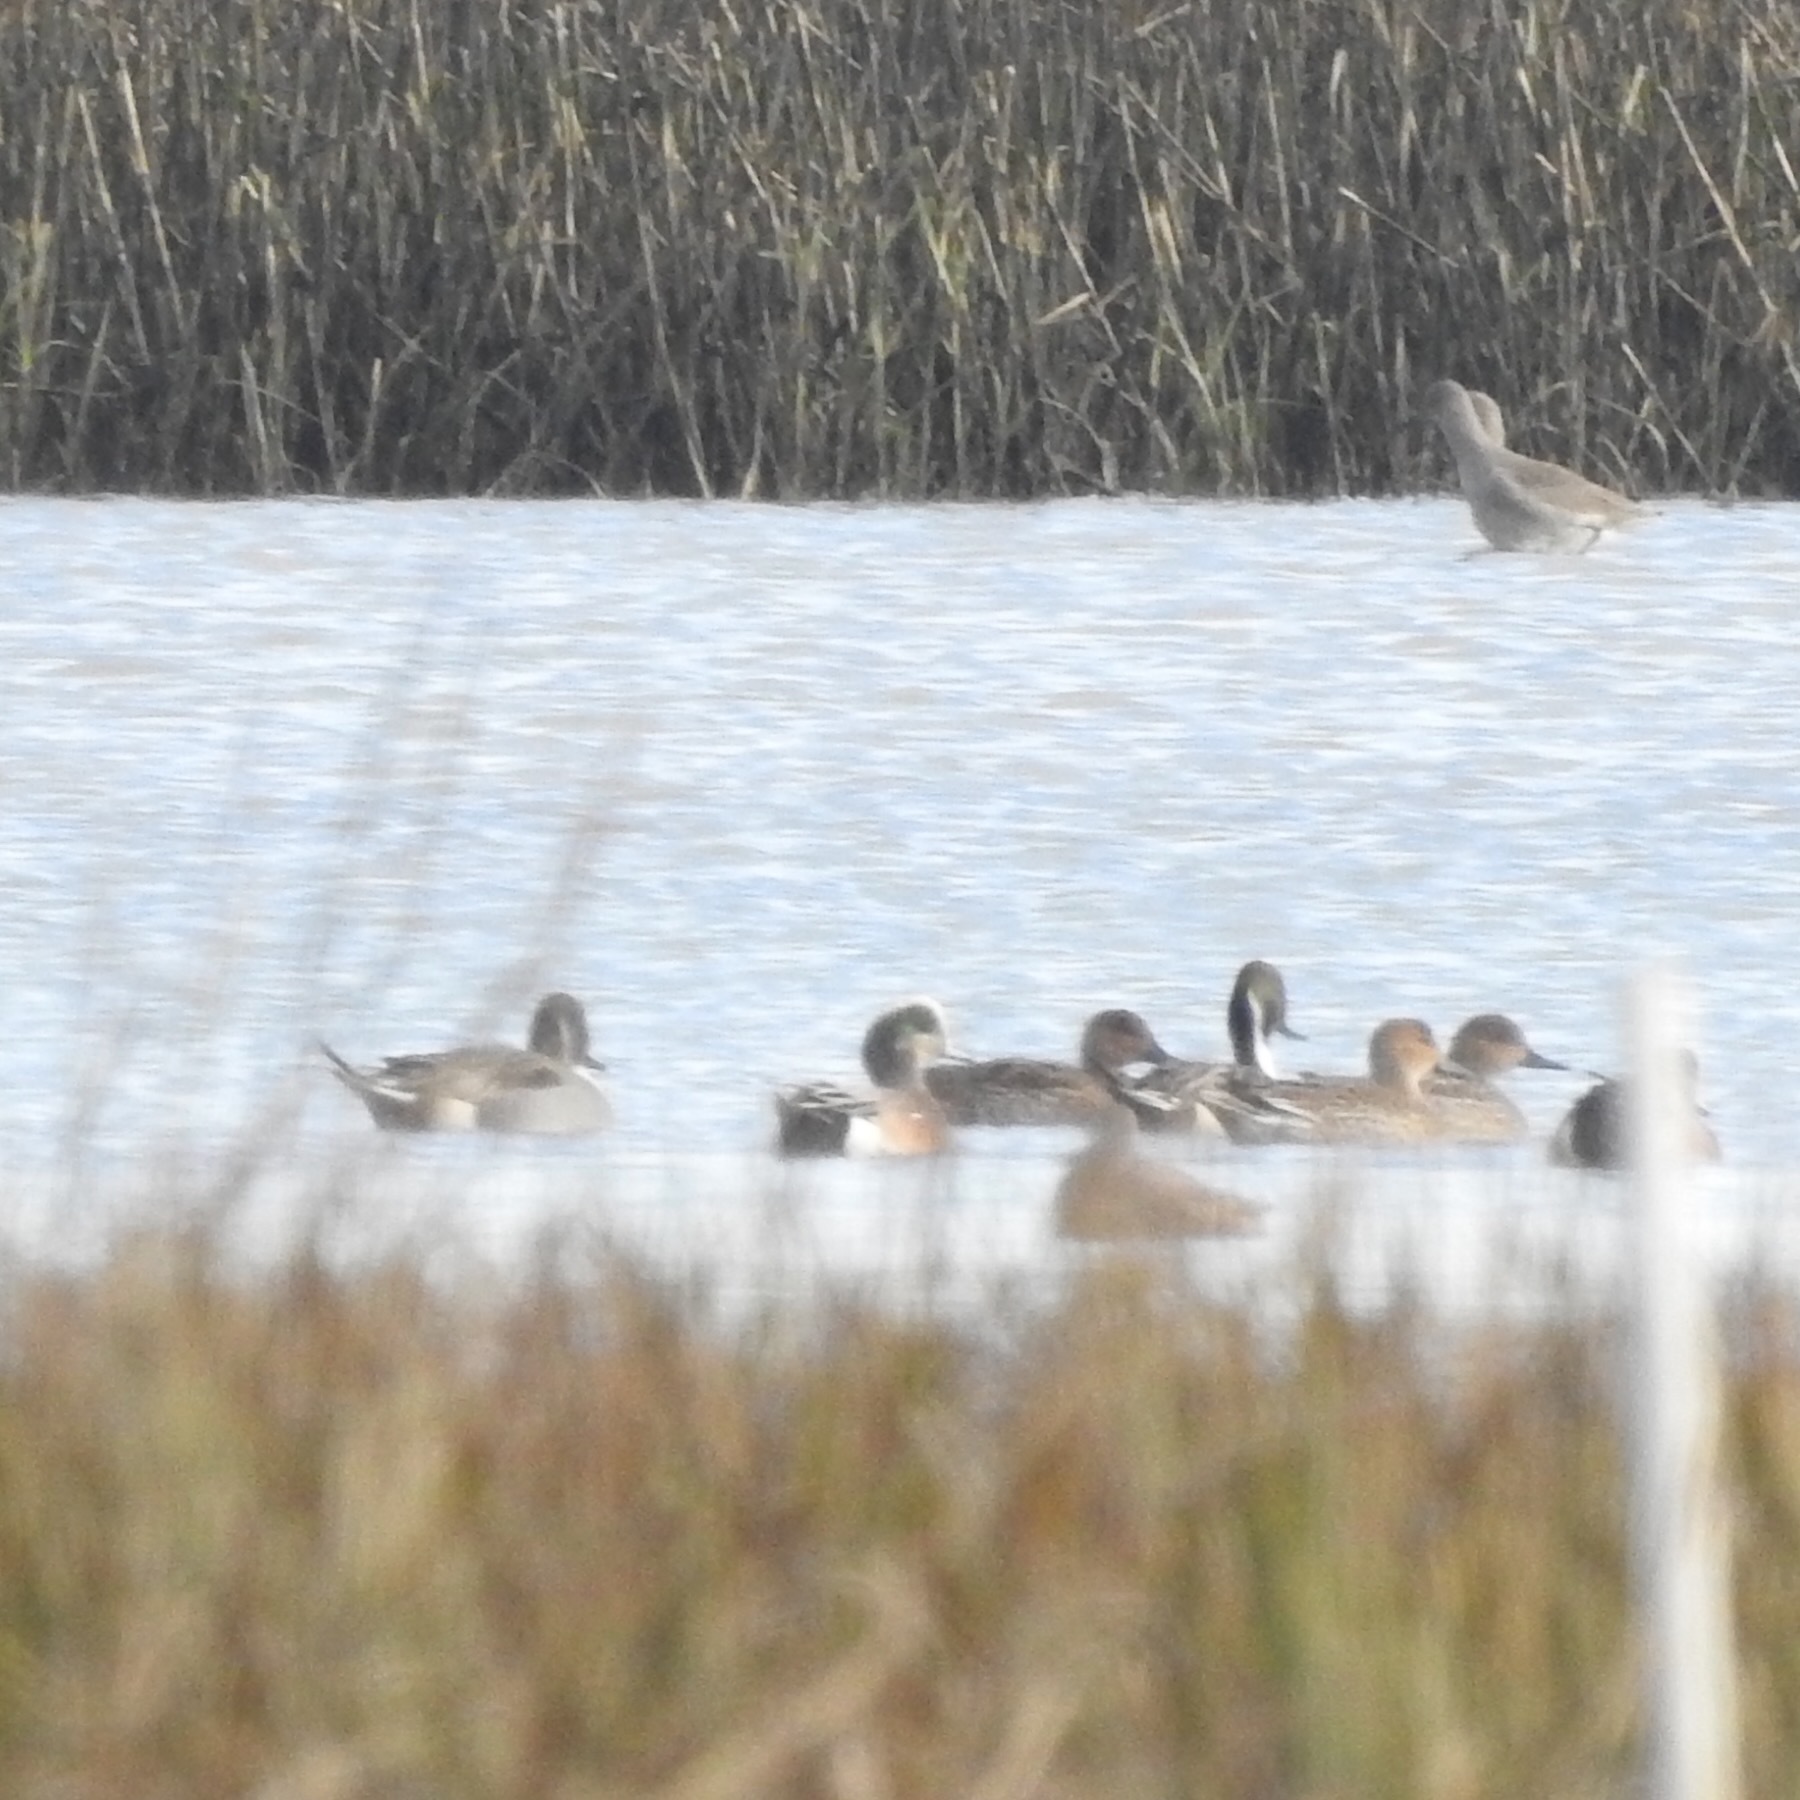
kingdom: Animalia
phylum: Chordata
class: Aves
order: Anseriformes
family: Anatidae
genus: Mareca
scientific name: Mareca americana
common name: American wigeon
